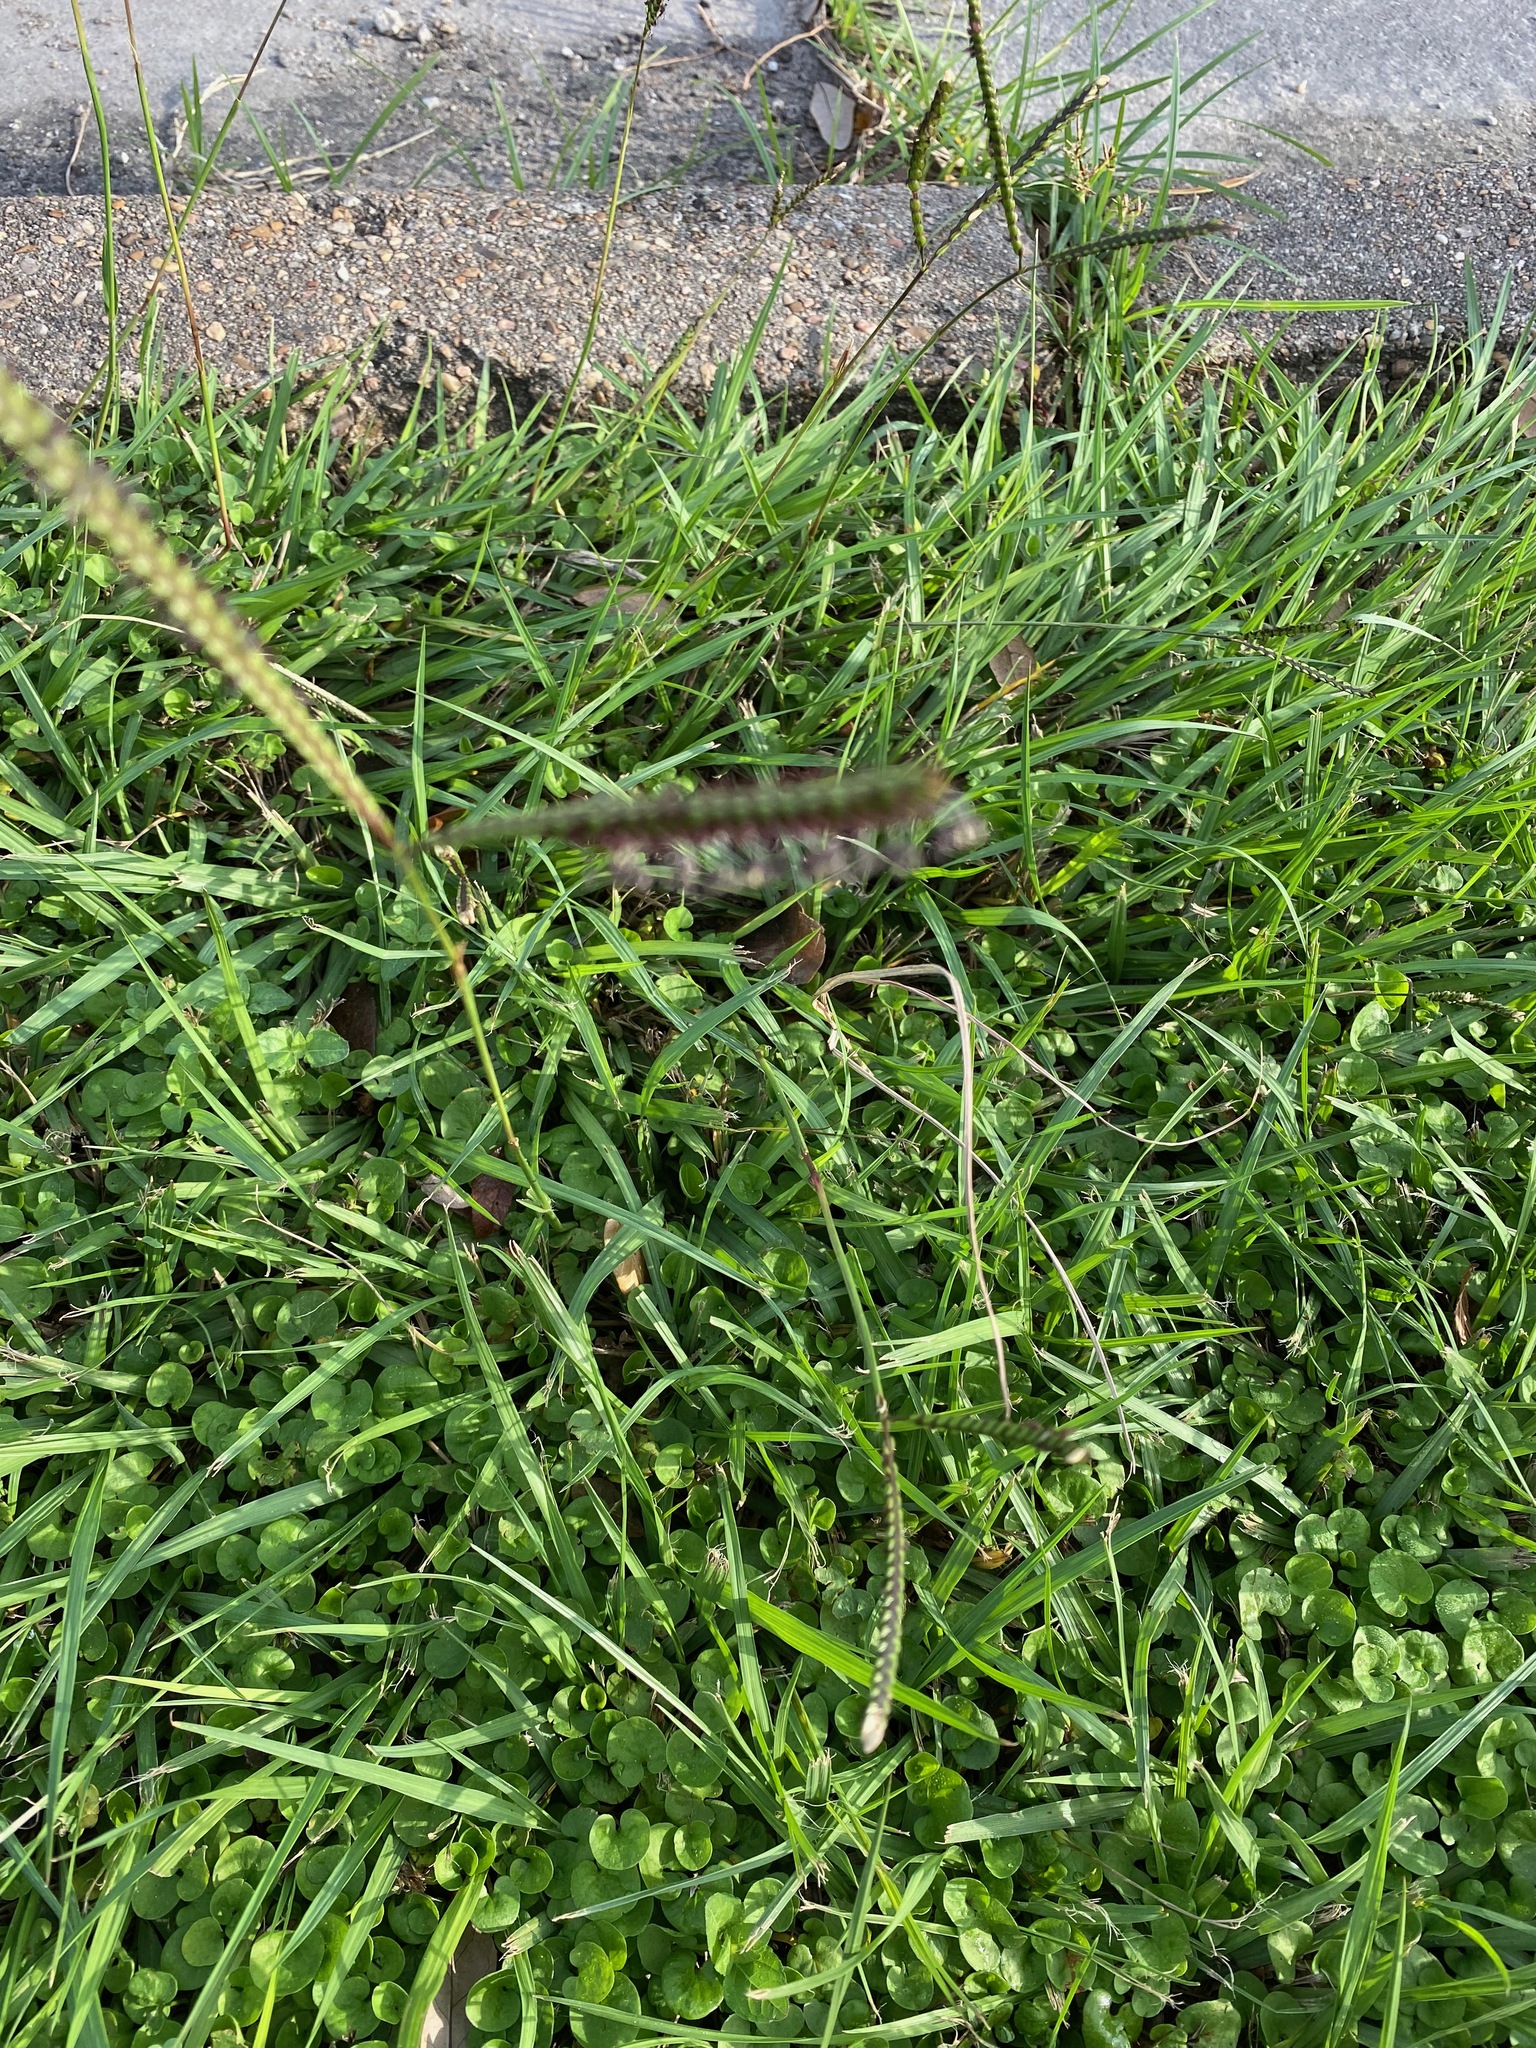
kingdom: Plantae
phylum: Tracheophyta
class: Liliopsida
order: Poales
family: Poaceae
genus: Paspalum
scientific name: Paspalum notatum
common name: Bahiagrass
